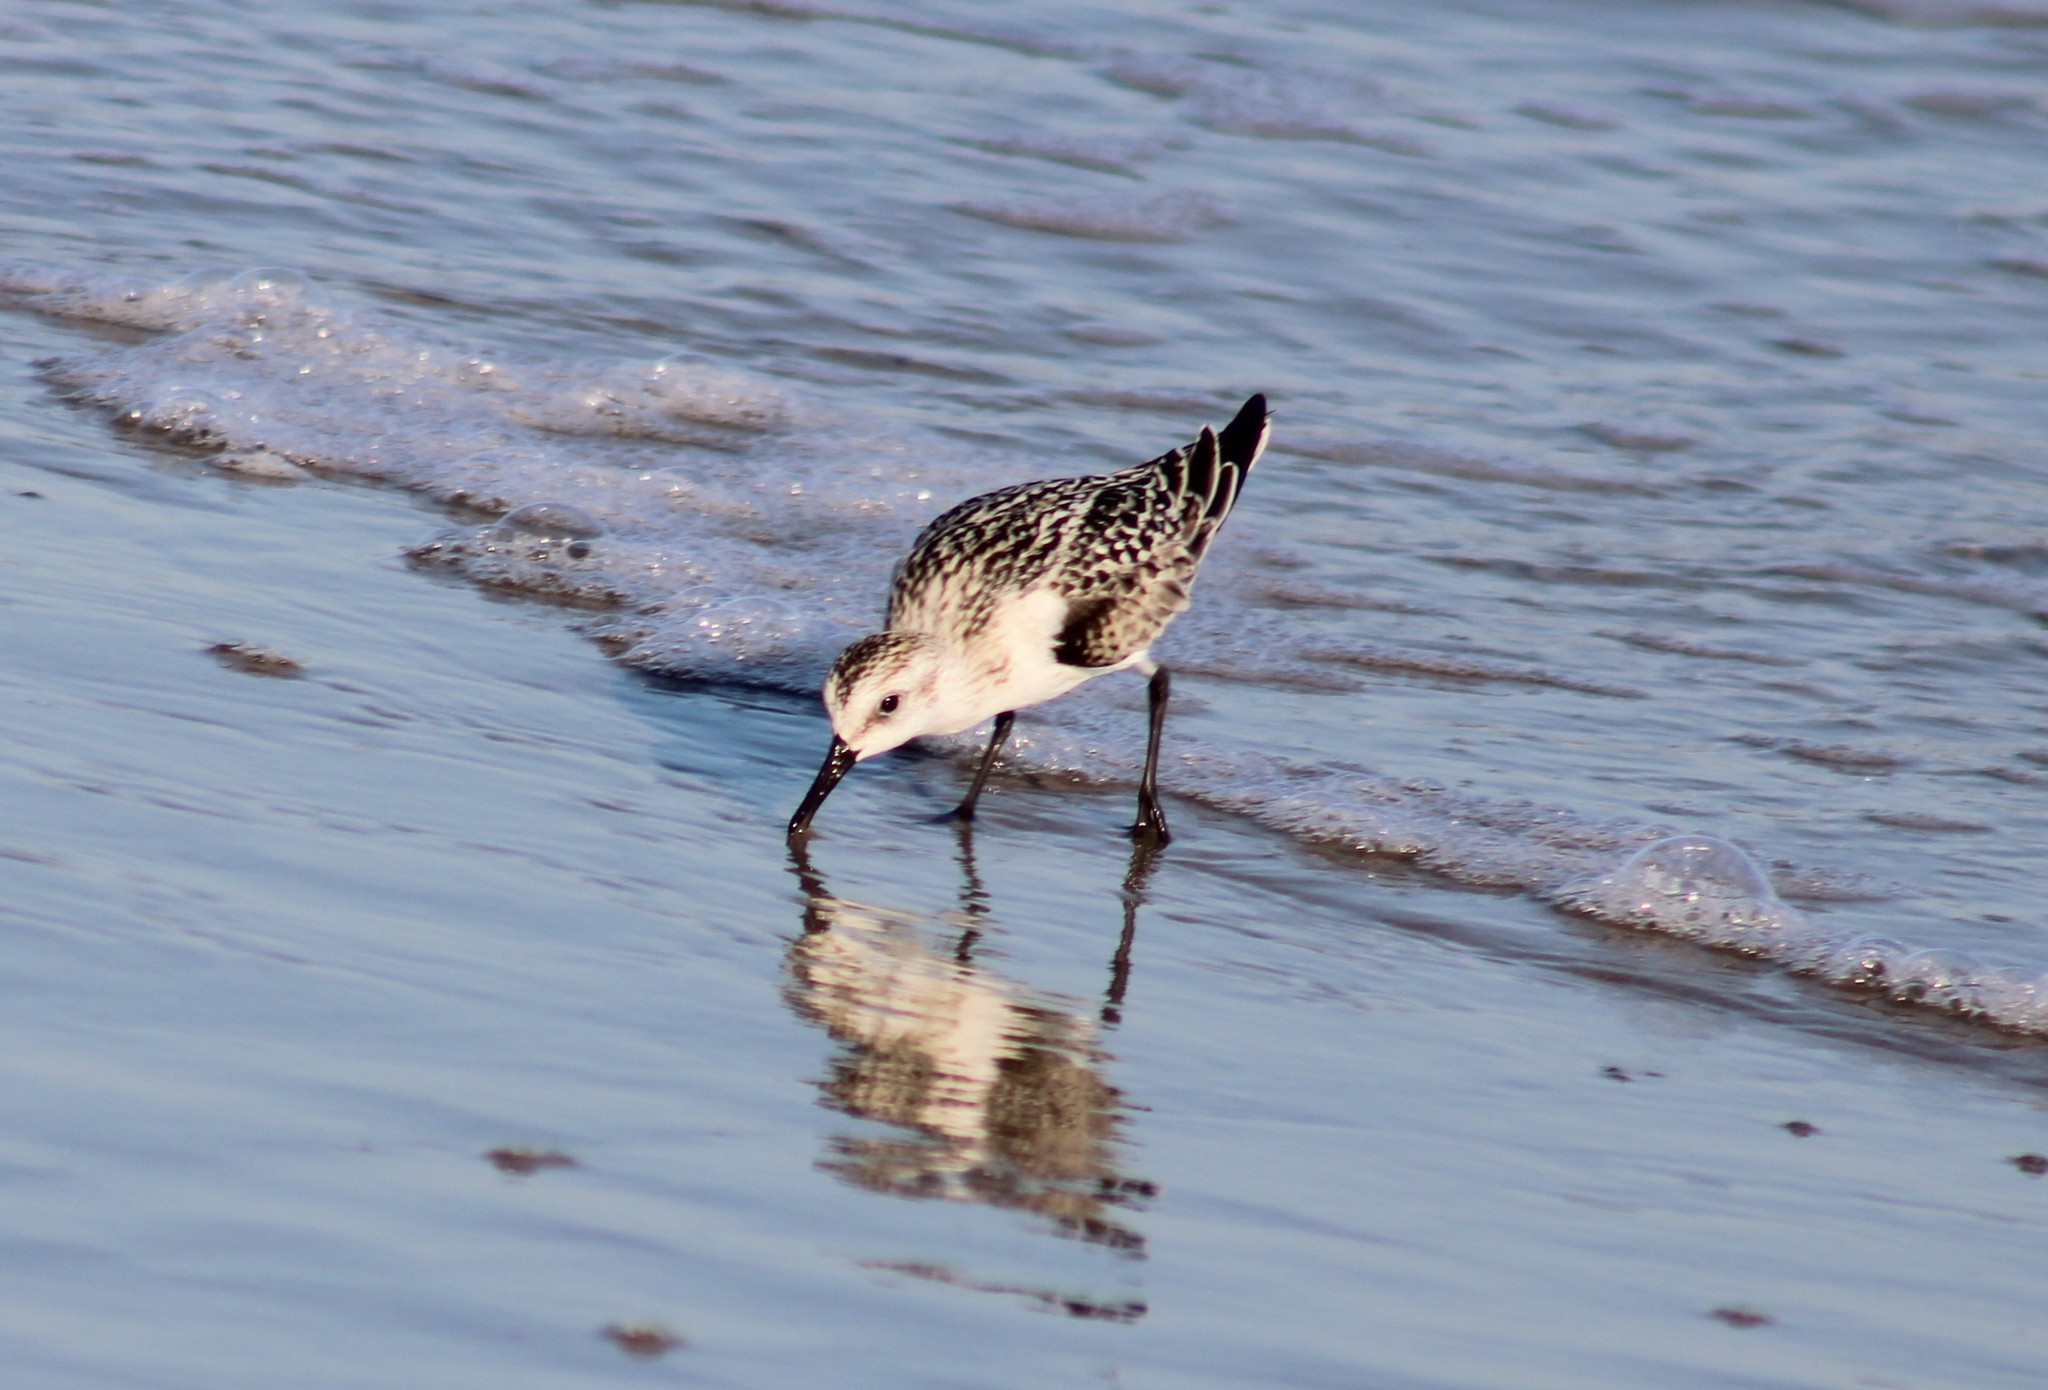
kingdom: Animalia
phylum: Chordata
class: Aves
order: Charadriiformes
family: Scolopacidae
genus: Calidris
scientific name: Calidris alba
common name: Sanderling
